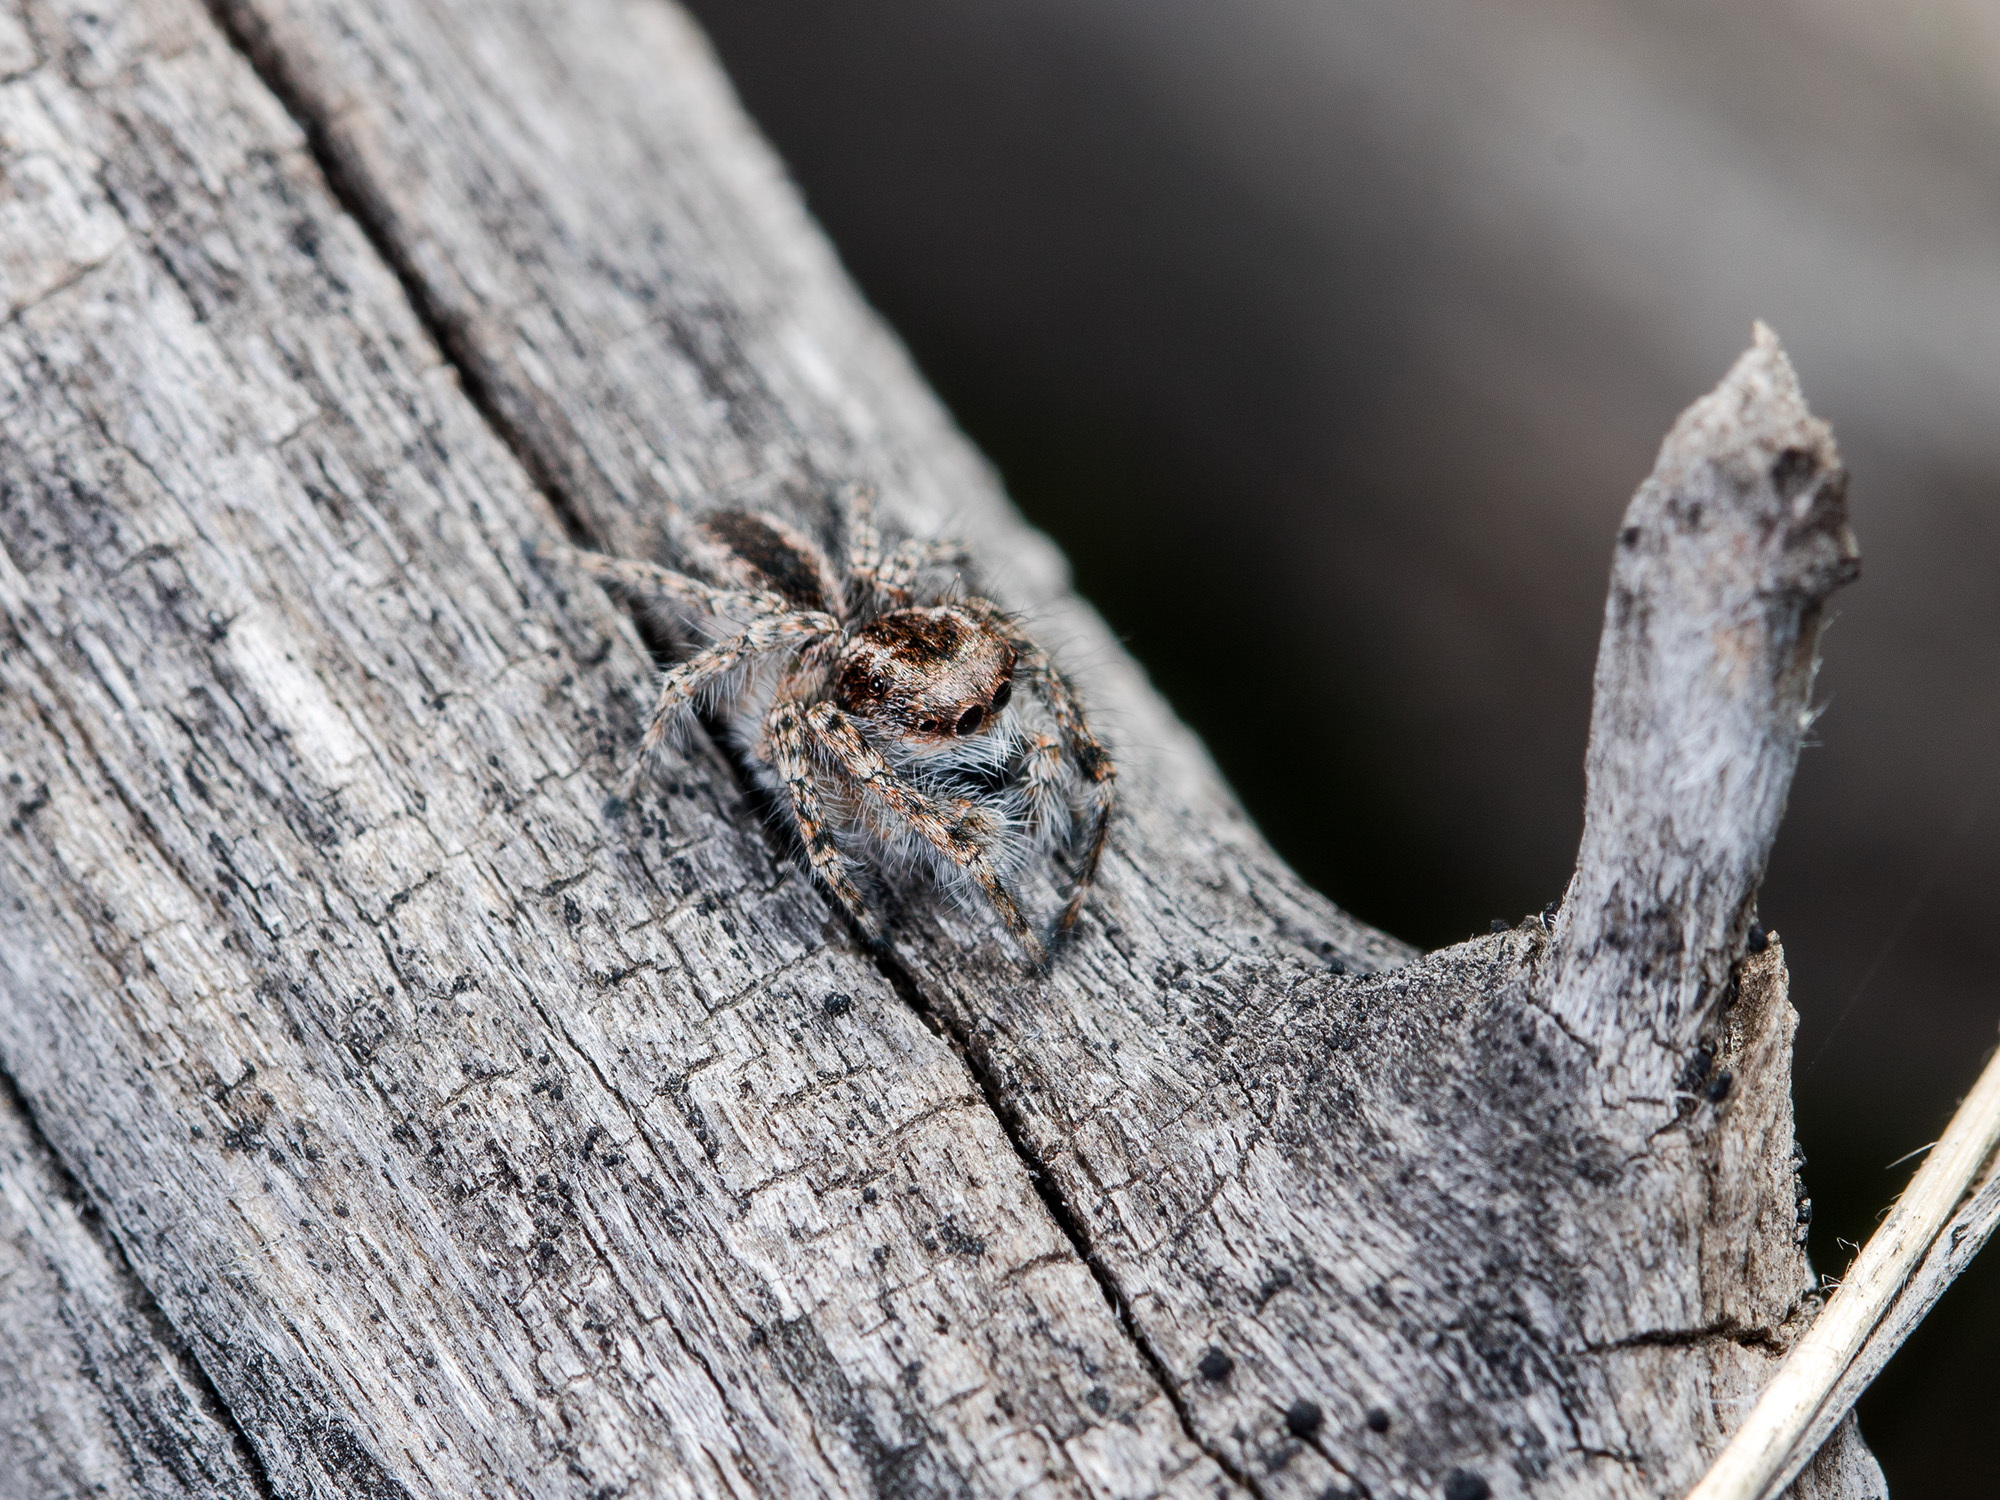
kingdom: Animalia
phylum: Arthropoda
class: Arachnida
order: Araneae
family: Salticidae
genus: Mogrus
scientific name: Mogrus larisae
